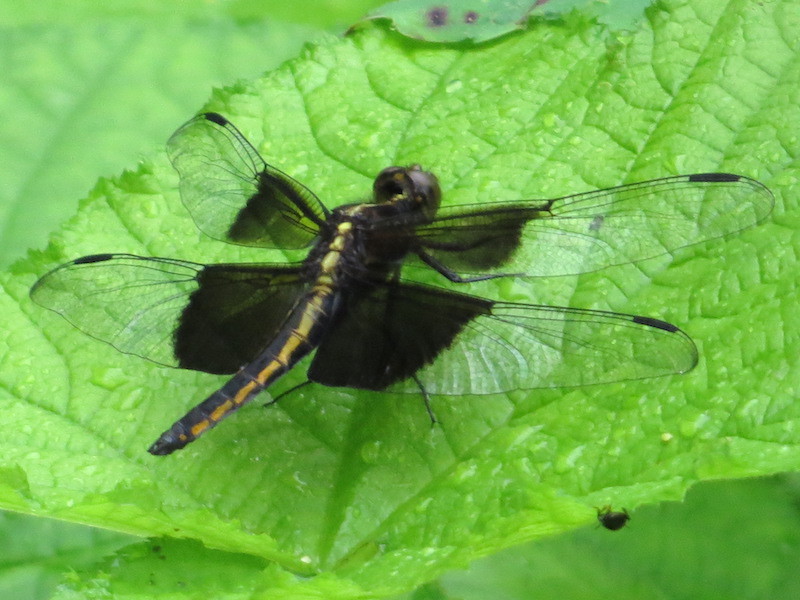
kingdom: Animalia
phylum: Arthropoda
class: Insecta
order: Odonata
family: Libellulidae
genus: Libellula
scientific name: Libellula luctuosa
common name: Widow skimmer
